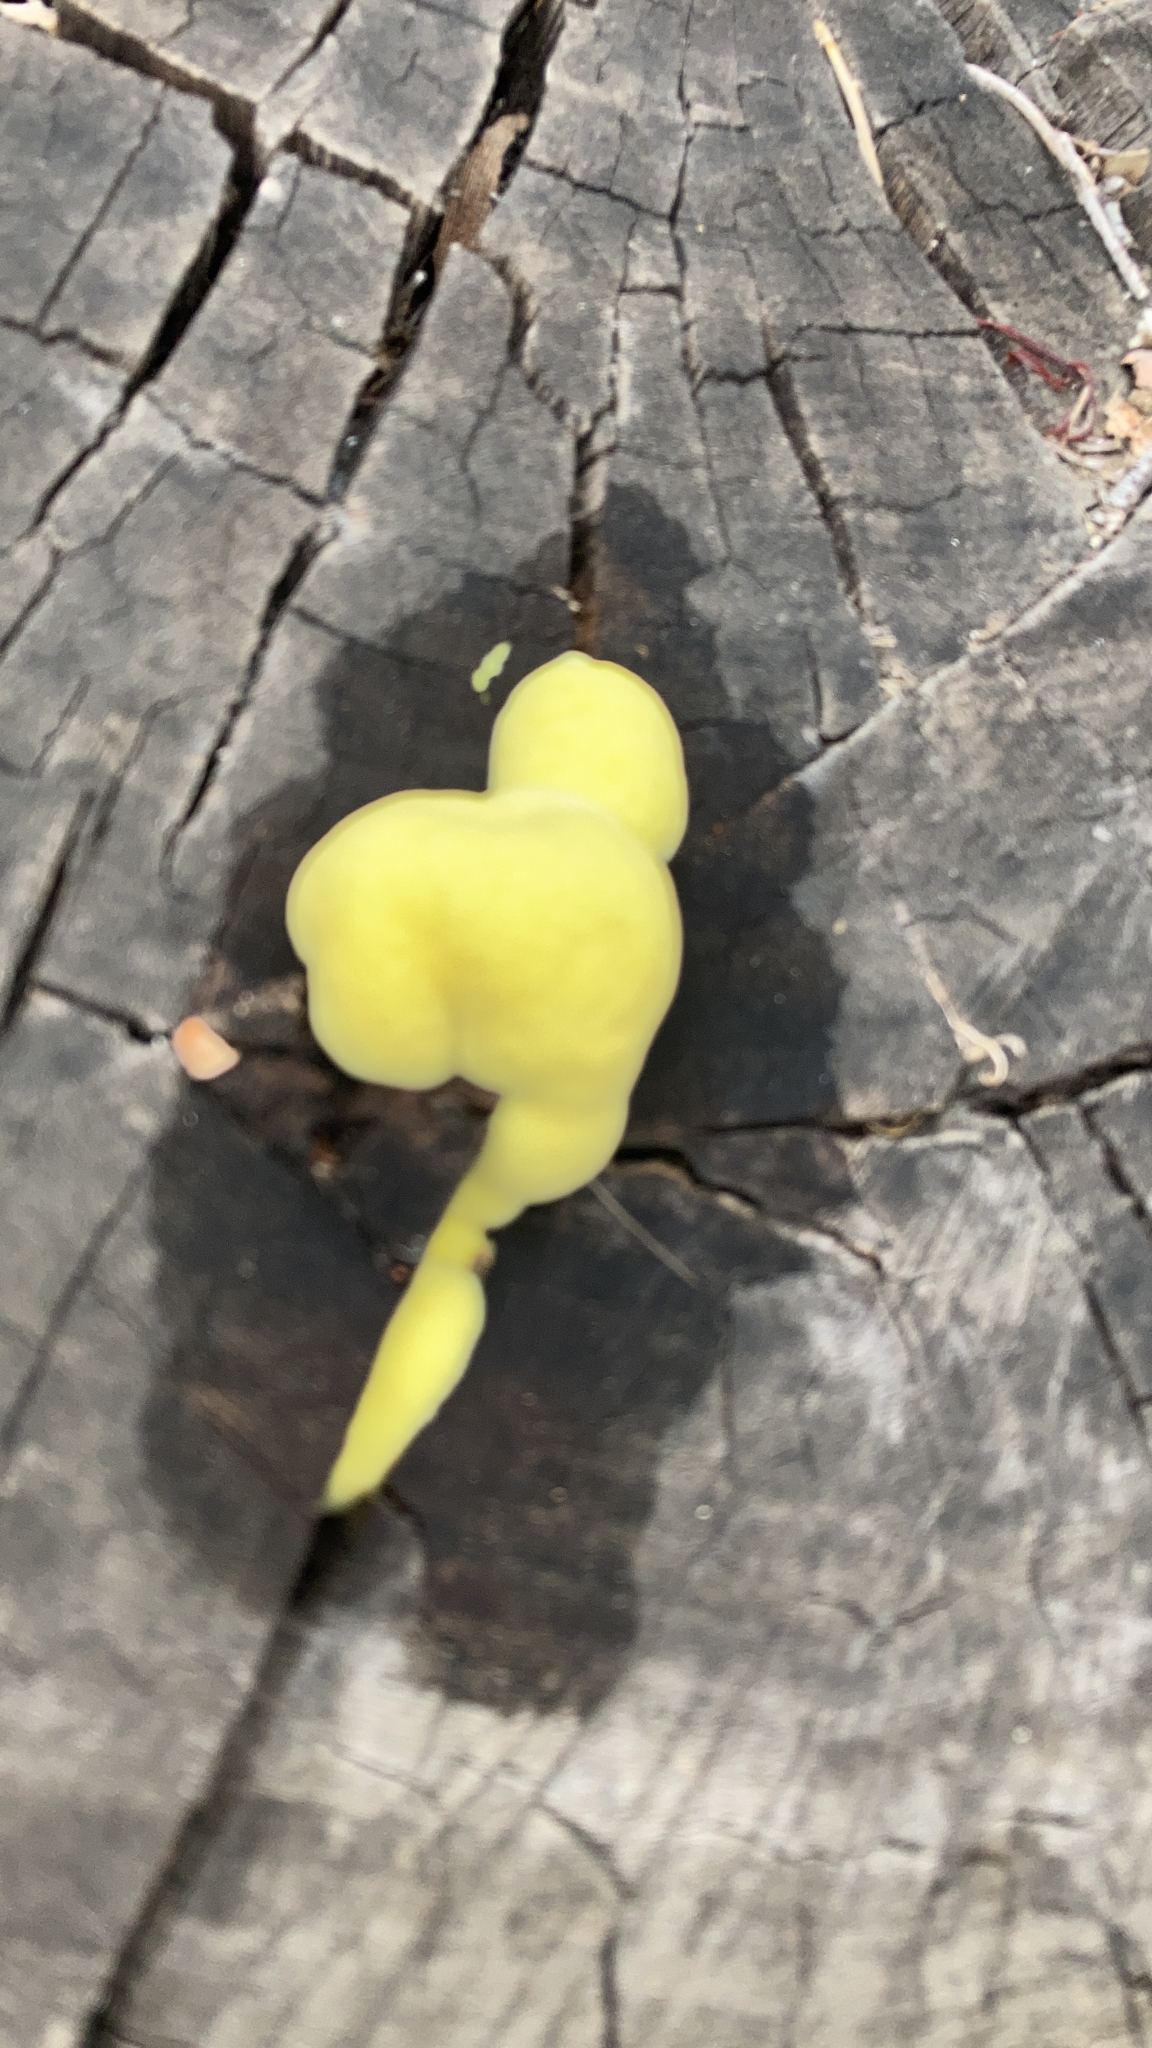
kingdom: Fungi
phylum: Basidiomycota
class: Agaricomycetes
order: Polyporales
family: Laetiporaceae
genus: Laetiporus
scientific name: Laetiporus gilbertsonii
